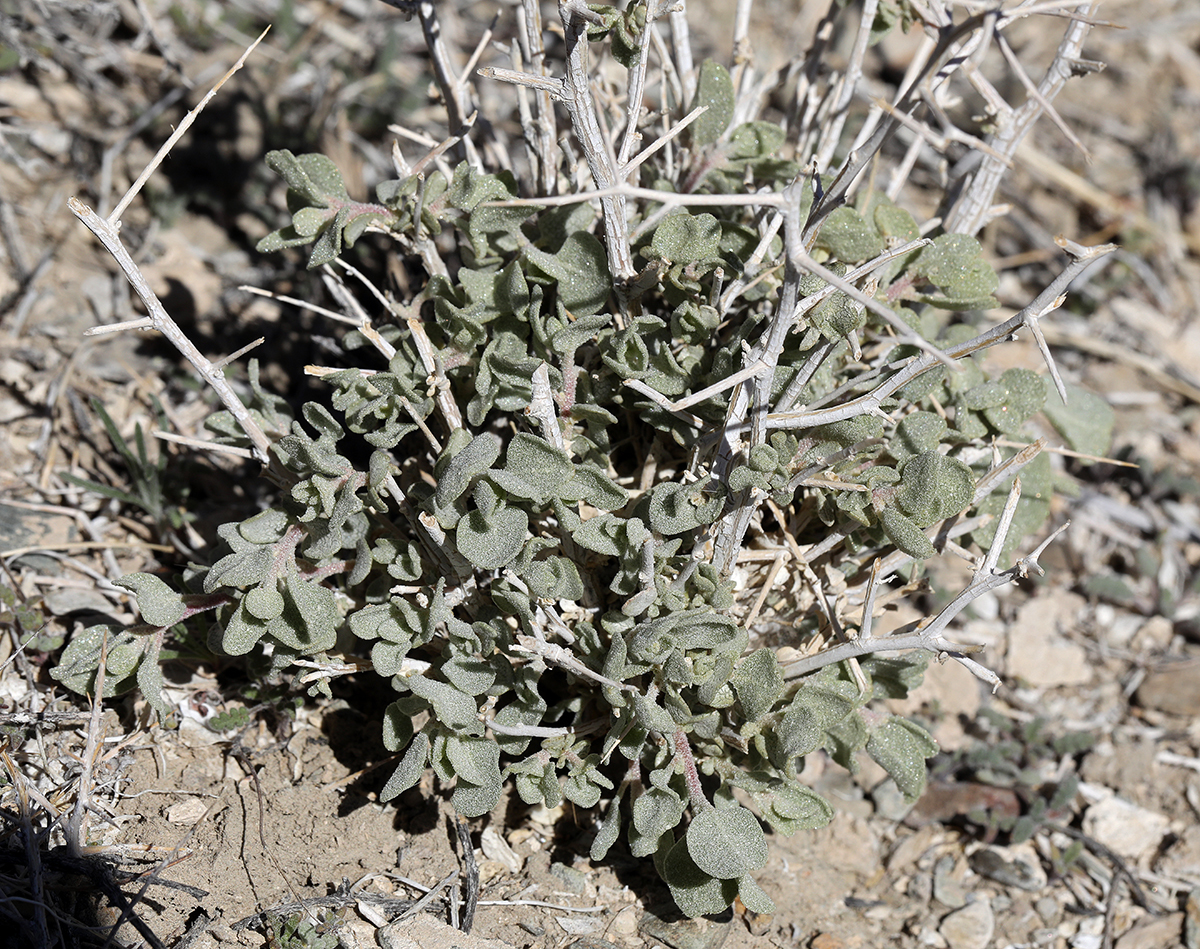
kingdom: Plantae
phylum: Tracheophyta
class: Magnoliopsida
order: Caryophyllales
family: Amaranthaceae
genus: Atriplex
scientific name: Atriplex confertifolia
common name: Shadscale
